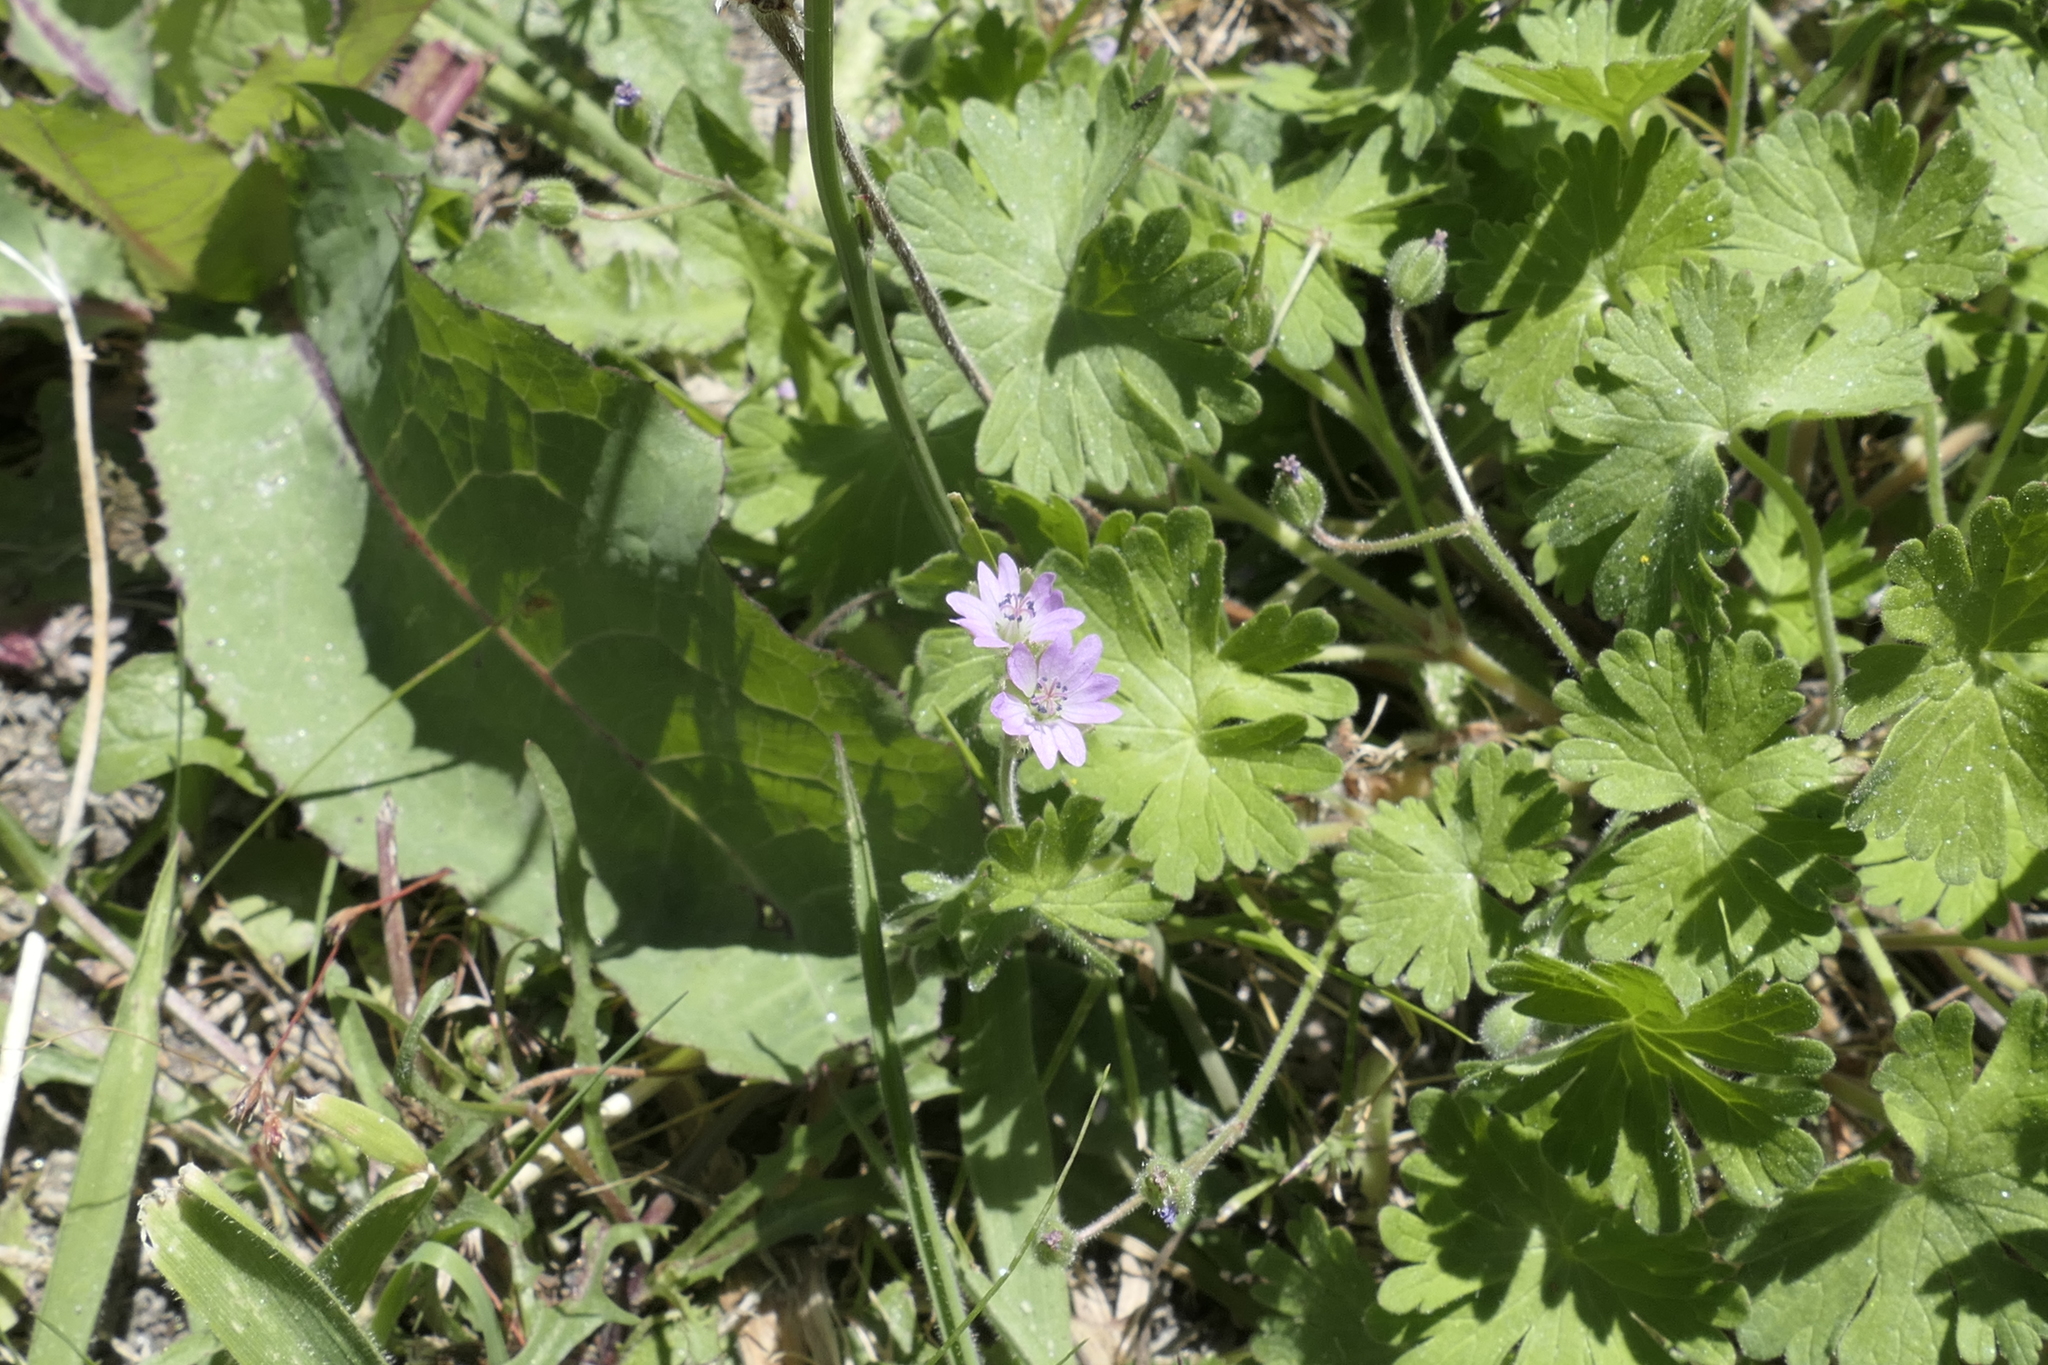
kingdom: Plantae
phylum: Tracheophyta
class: Magnoliopsida
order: Geraniales
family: Geraniaceae
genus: Geranium
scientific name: Geranium molle
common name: Dove's-foot crane's-bill
